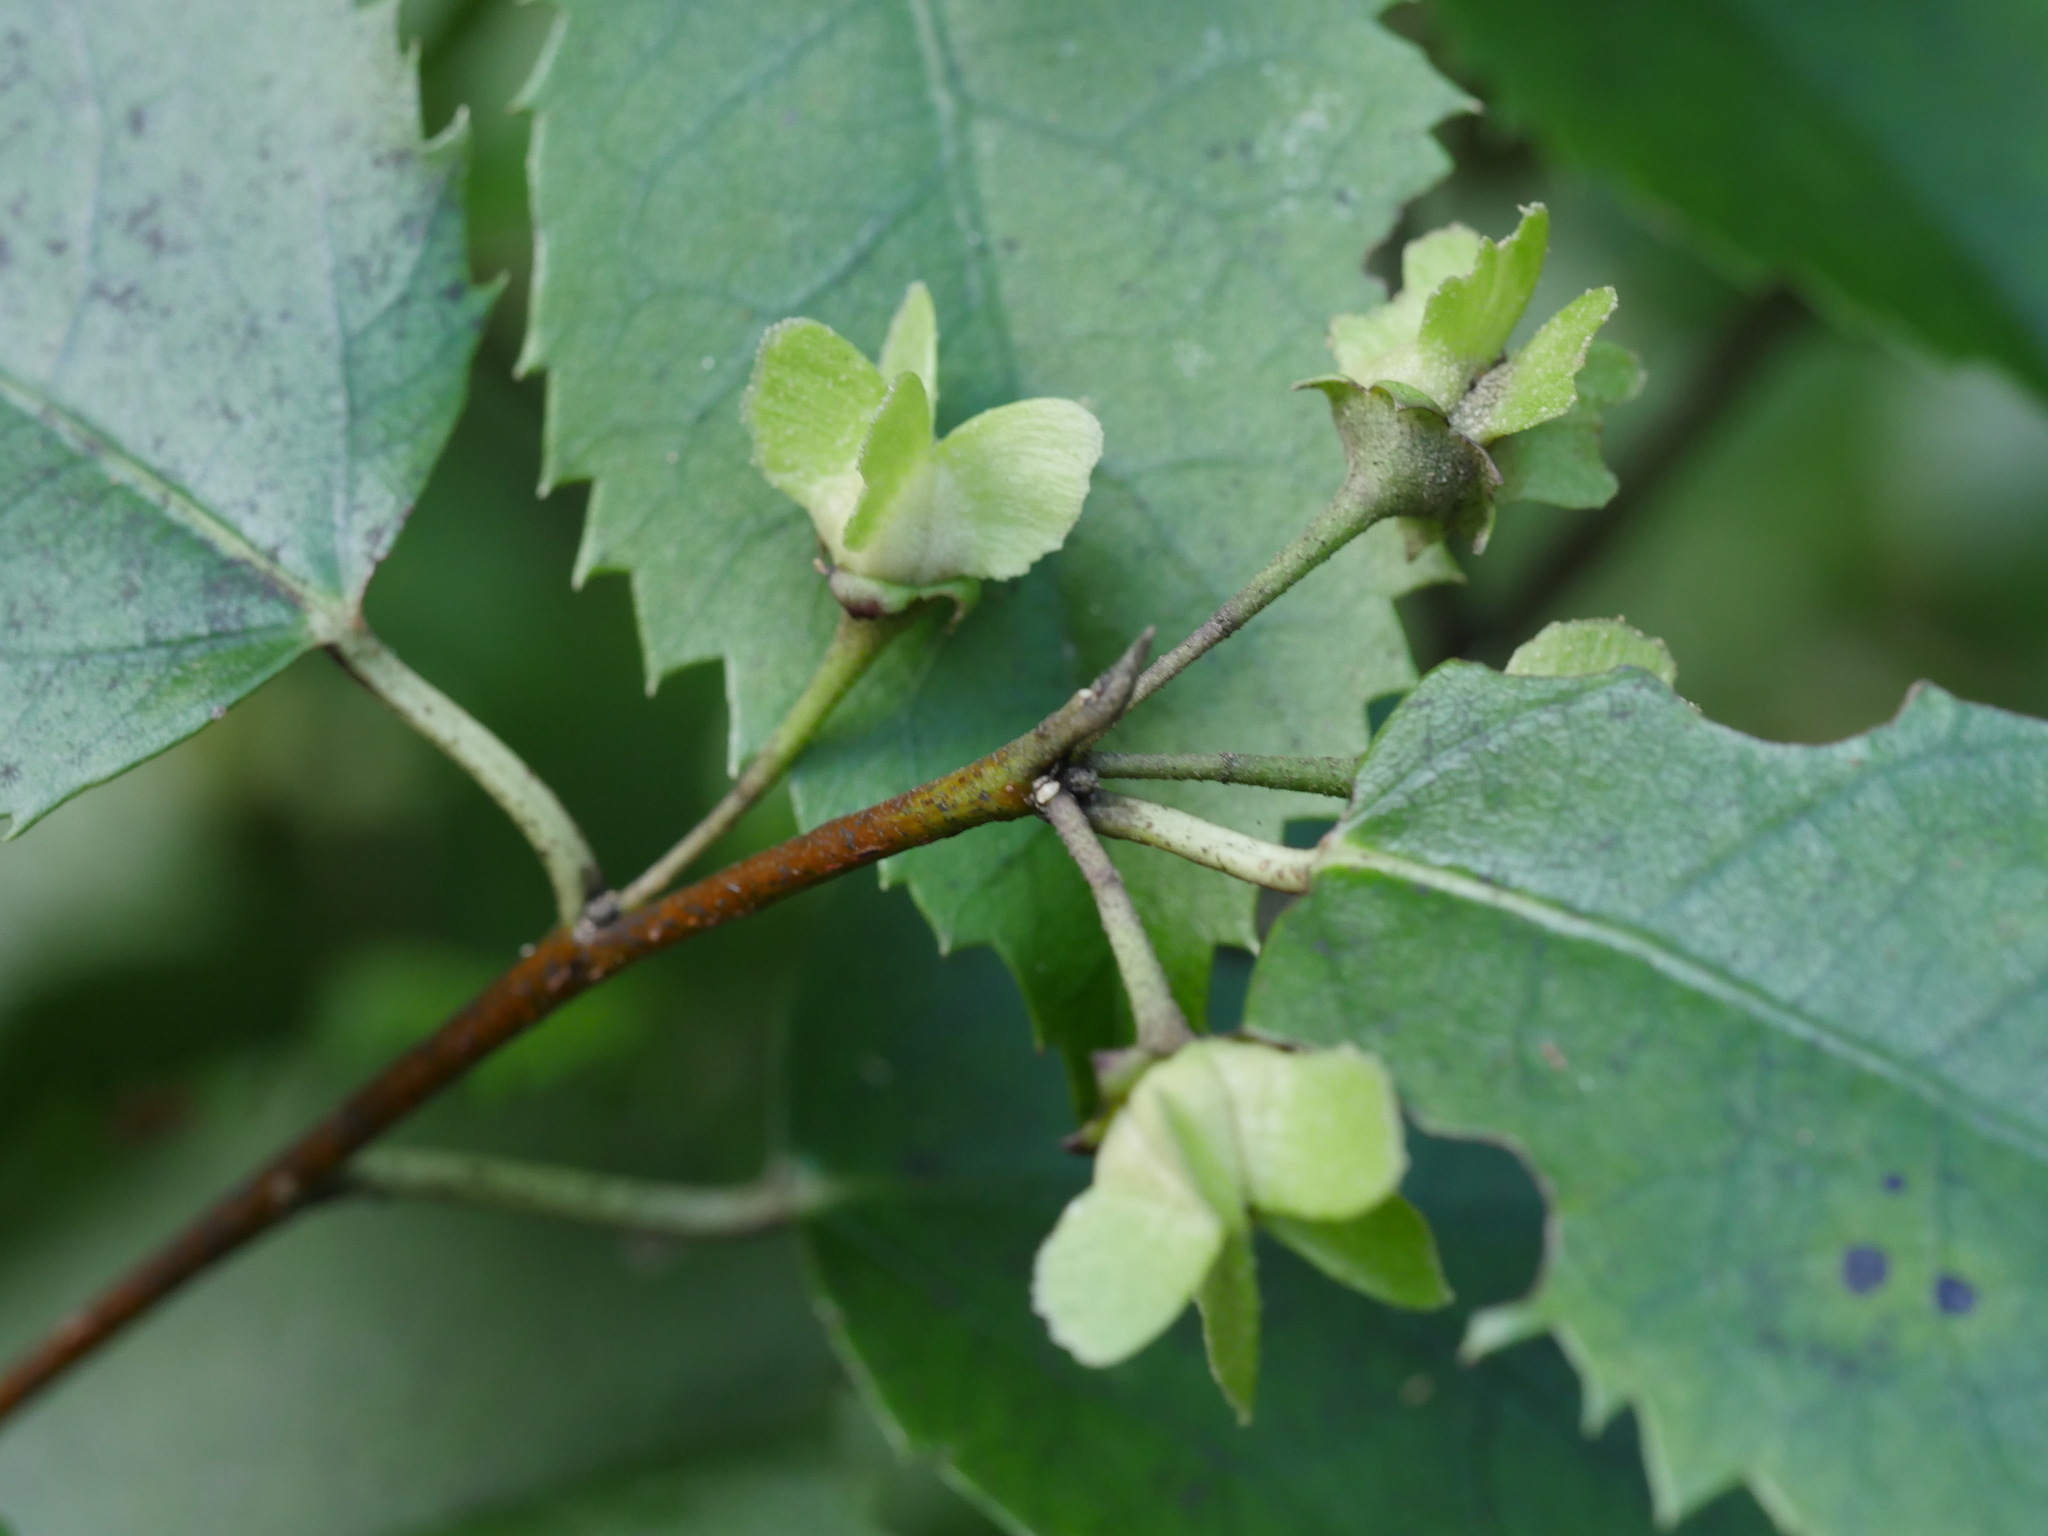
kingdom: Plantae
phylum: Tracheophyta
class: Magnoliopsida
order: Malvales
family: Malvaceae
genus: Hoheria
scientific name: Hoheria populnea
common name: Lacebark
